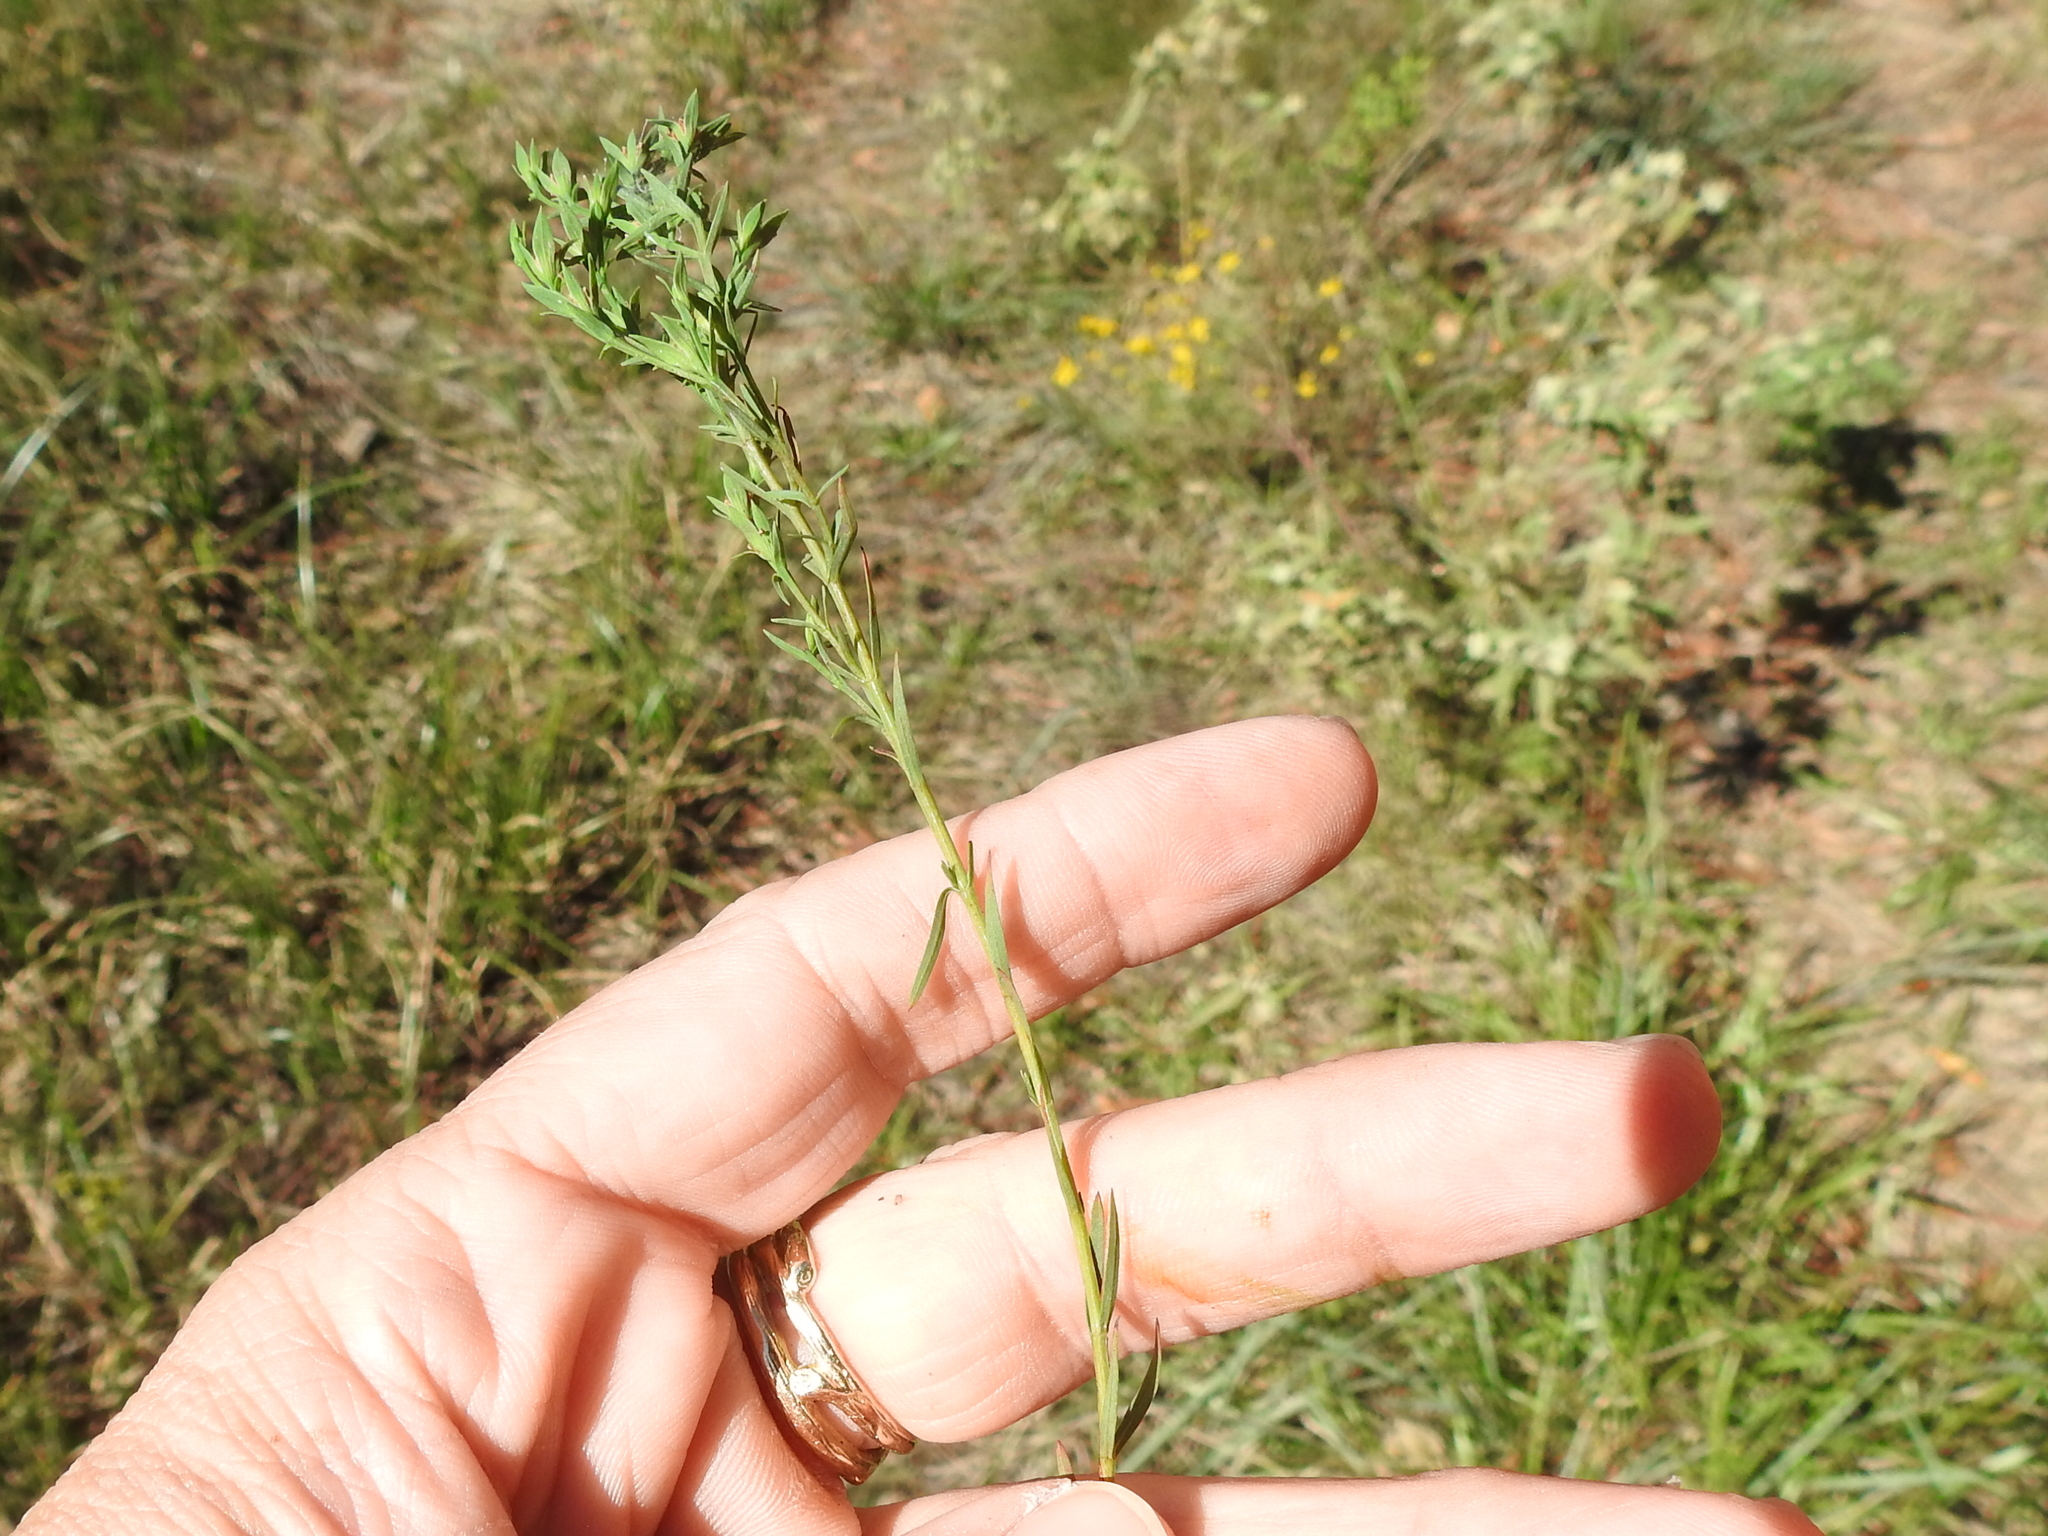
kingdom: Plantae
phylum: Tracheophyta
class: Magnoliopsida
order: Malpighiales
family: Hypericaceae
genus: Hypericum
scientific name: Hypericum drummondii
